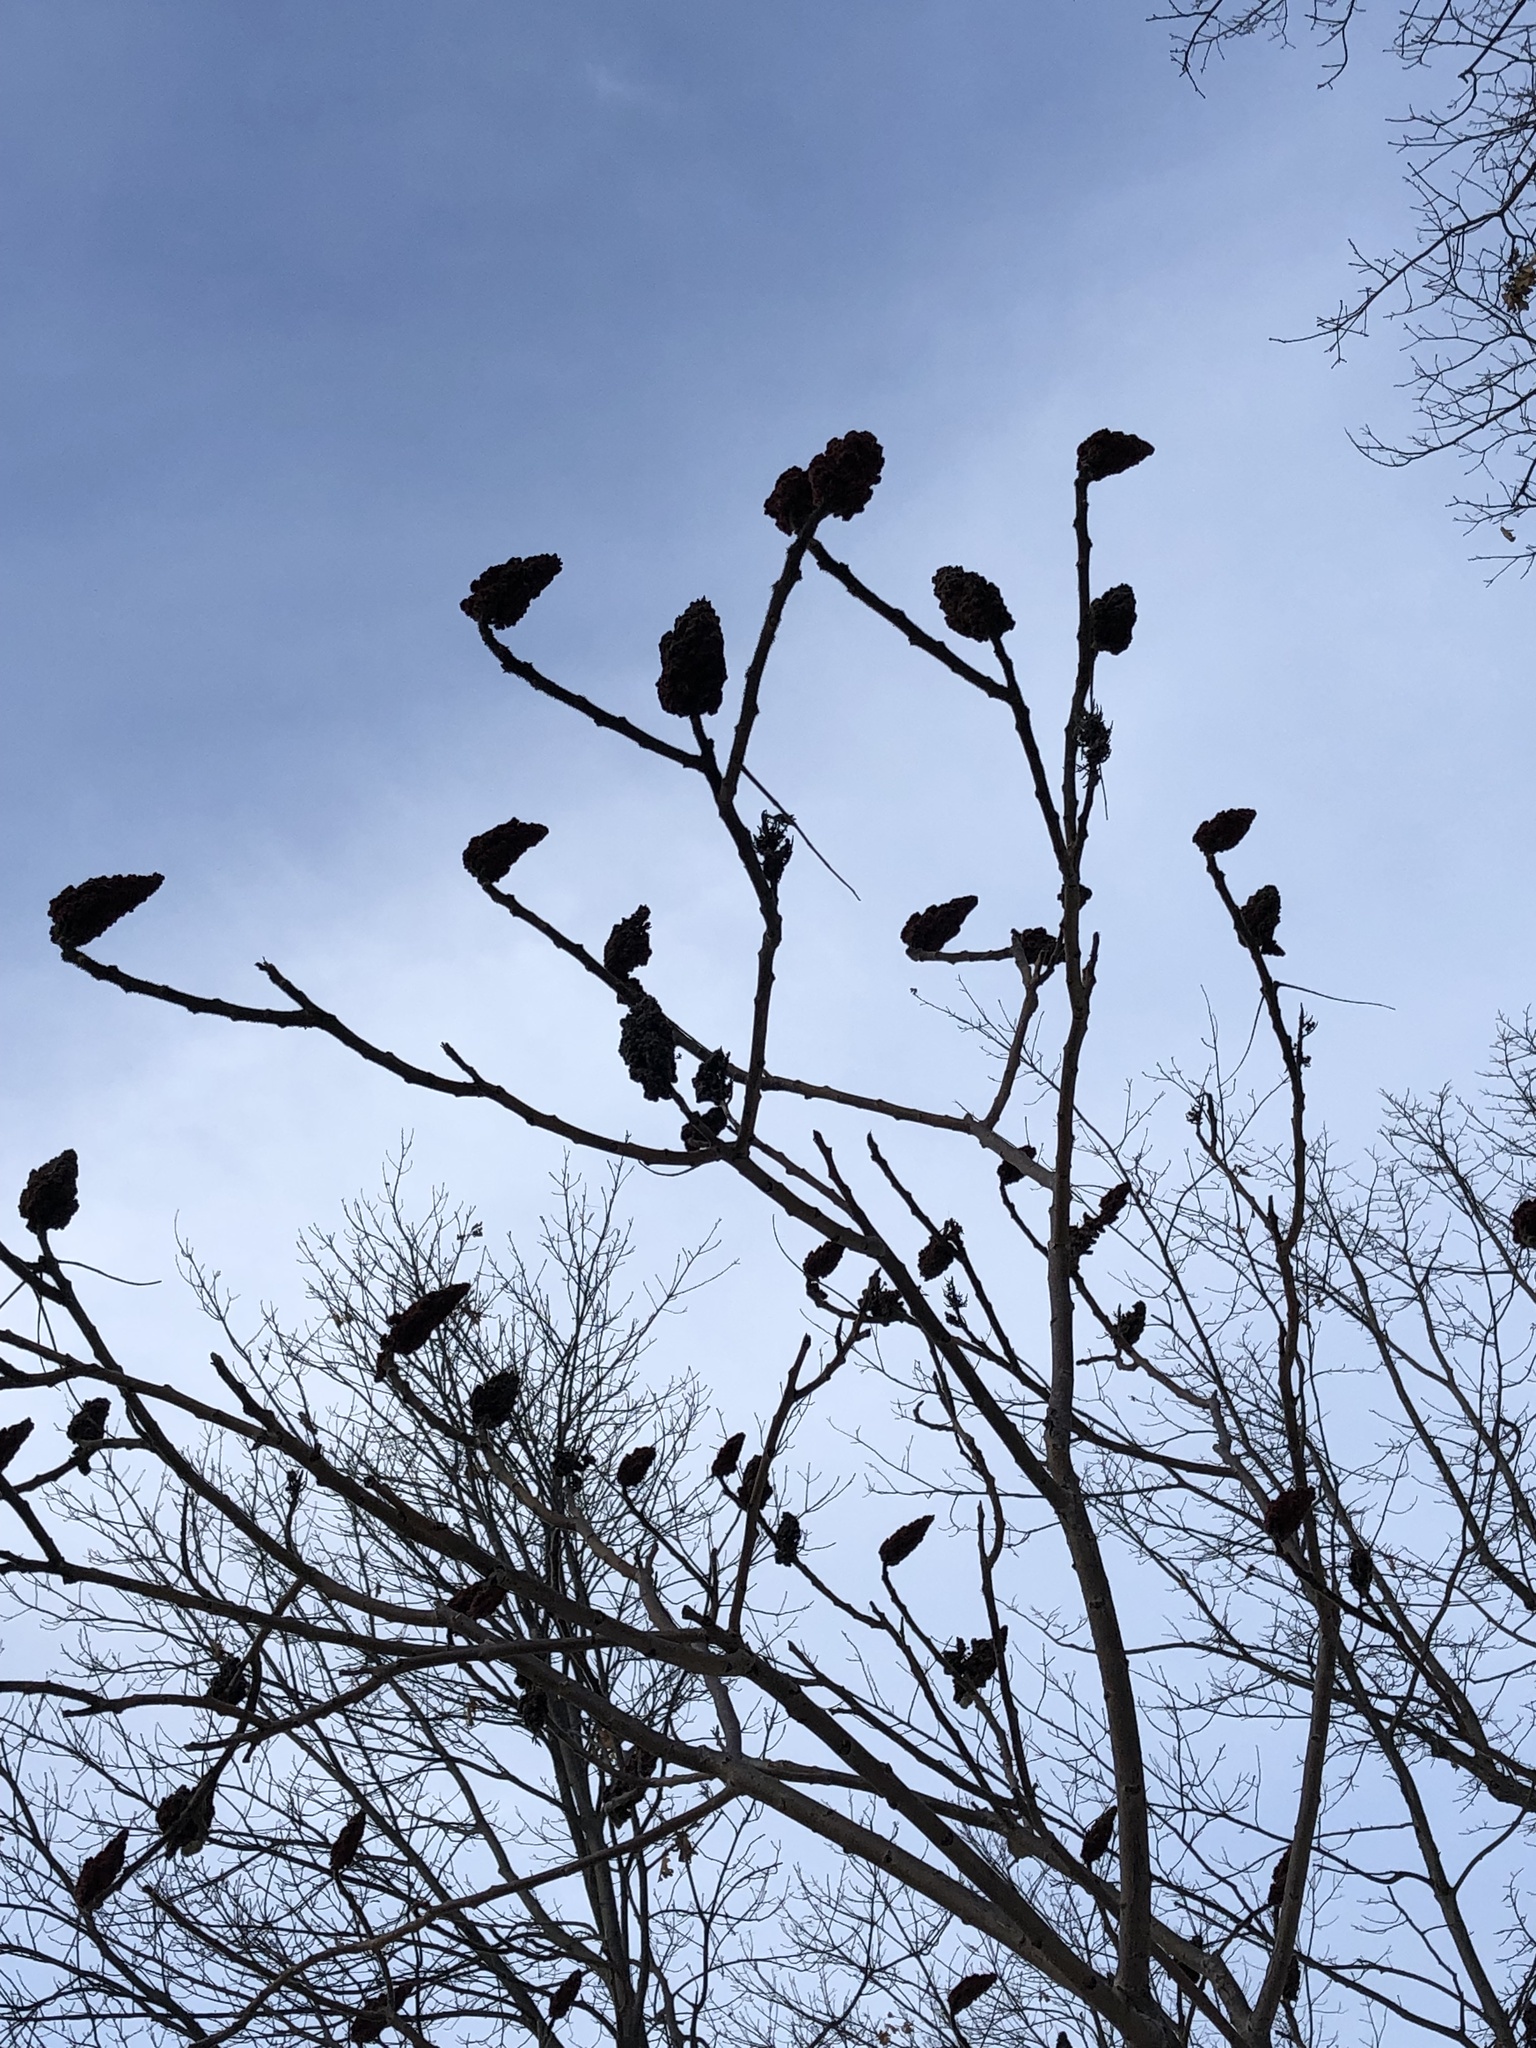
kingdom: Plantae
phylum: Tracheophyta
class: Magnoliopsida
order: Sapindales
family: Anacardiaceae
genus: Rhus
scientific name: Rhus typhina
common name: Staghorn sumac
